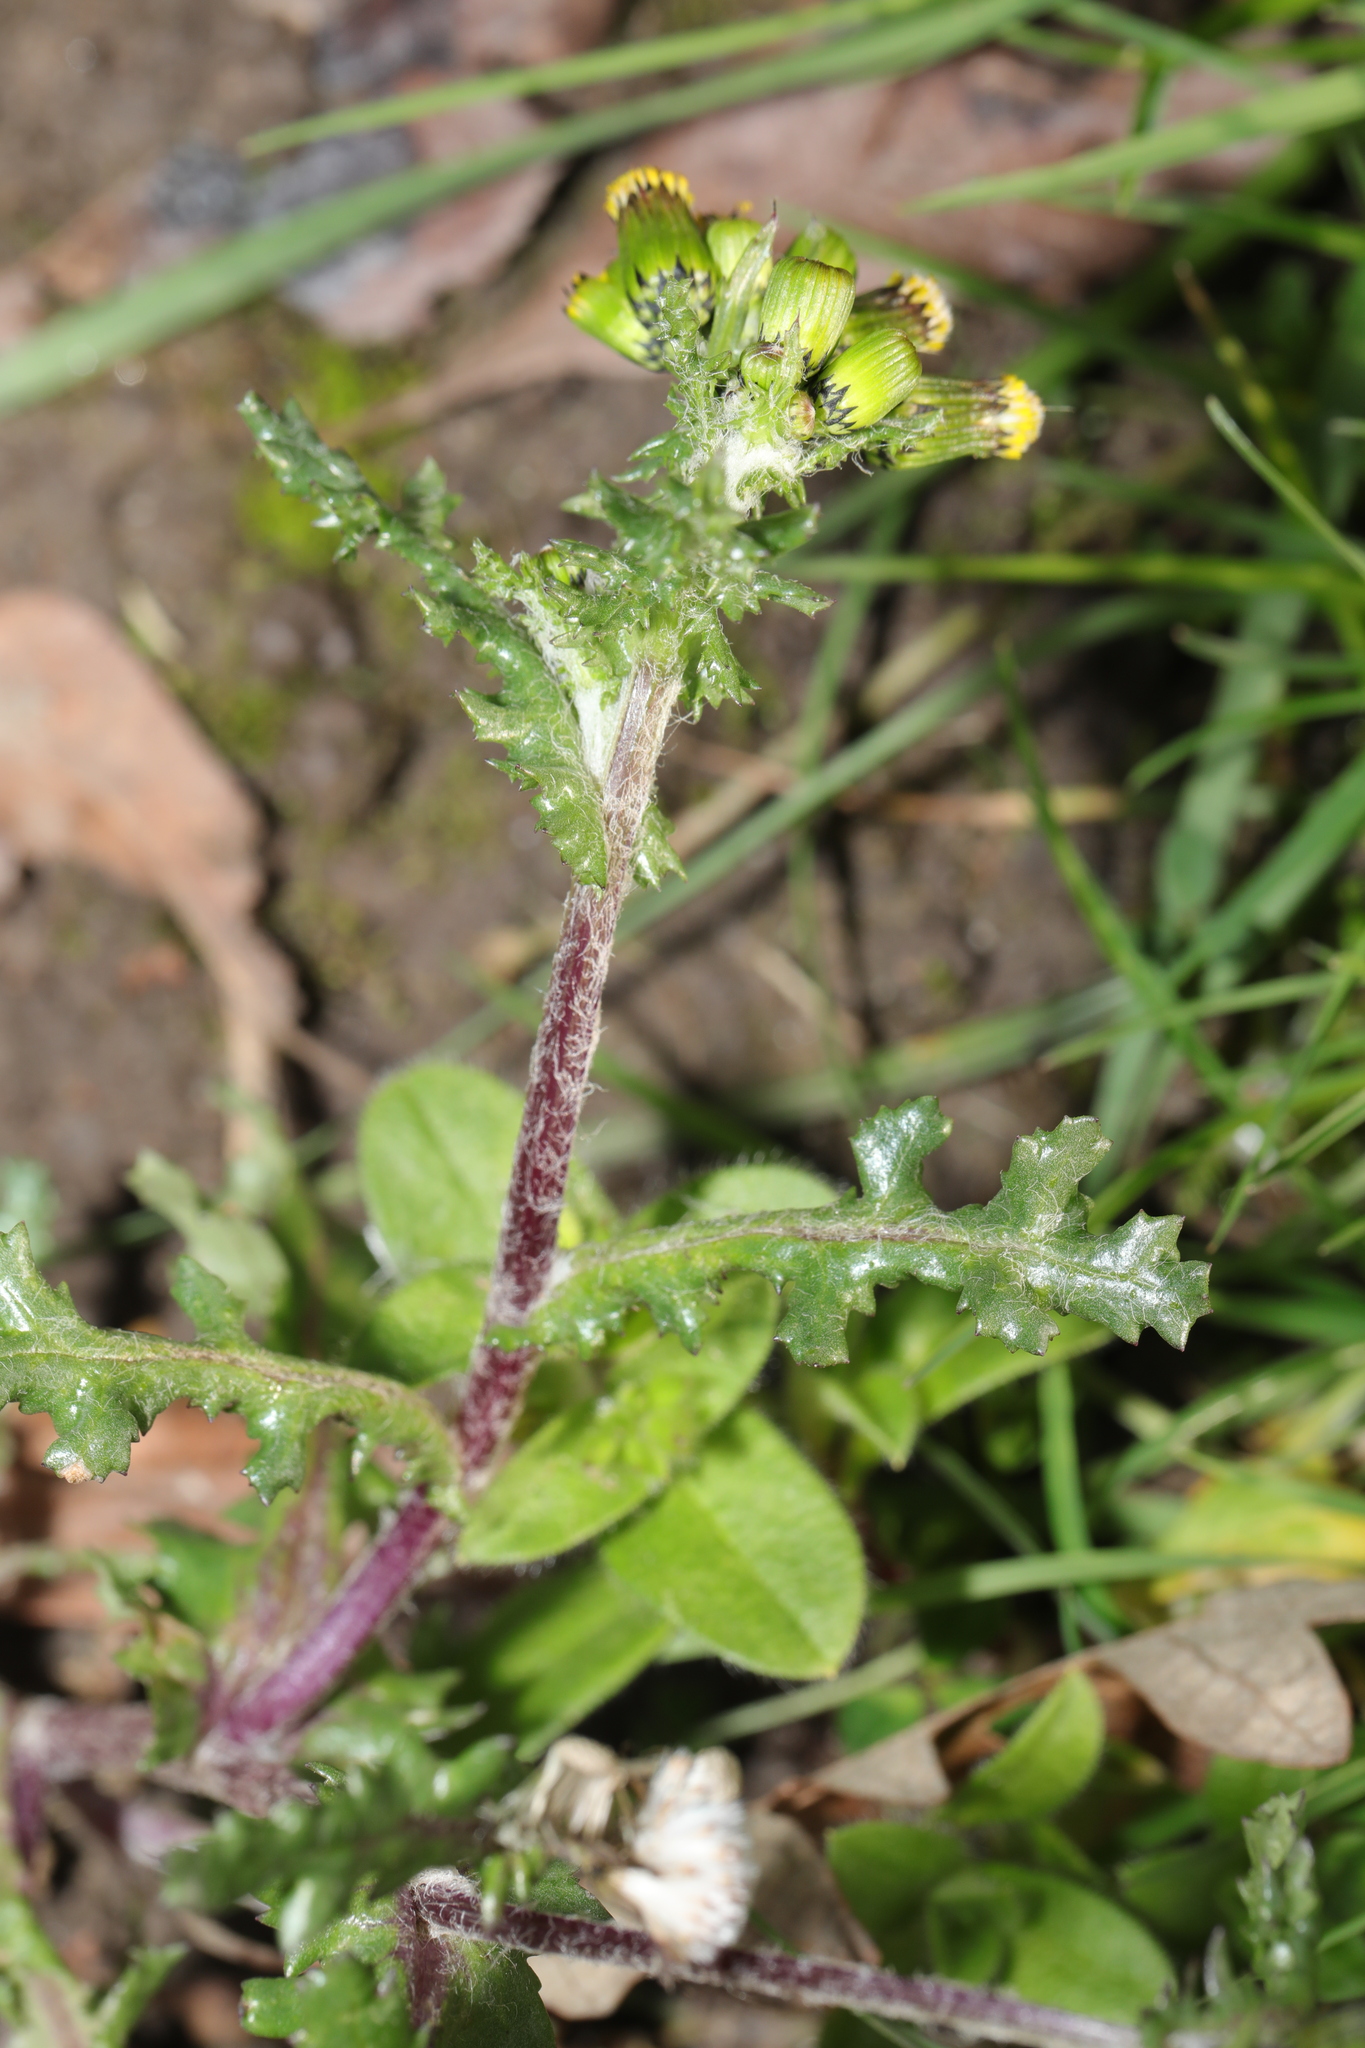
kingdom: Plantae
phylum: Tracheophyta
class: Magnoliopsida
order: Asterales
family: Asteraceae
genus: Senecio
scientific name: Senecio vulgaris
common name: Old-man-in-the-spring
